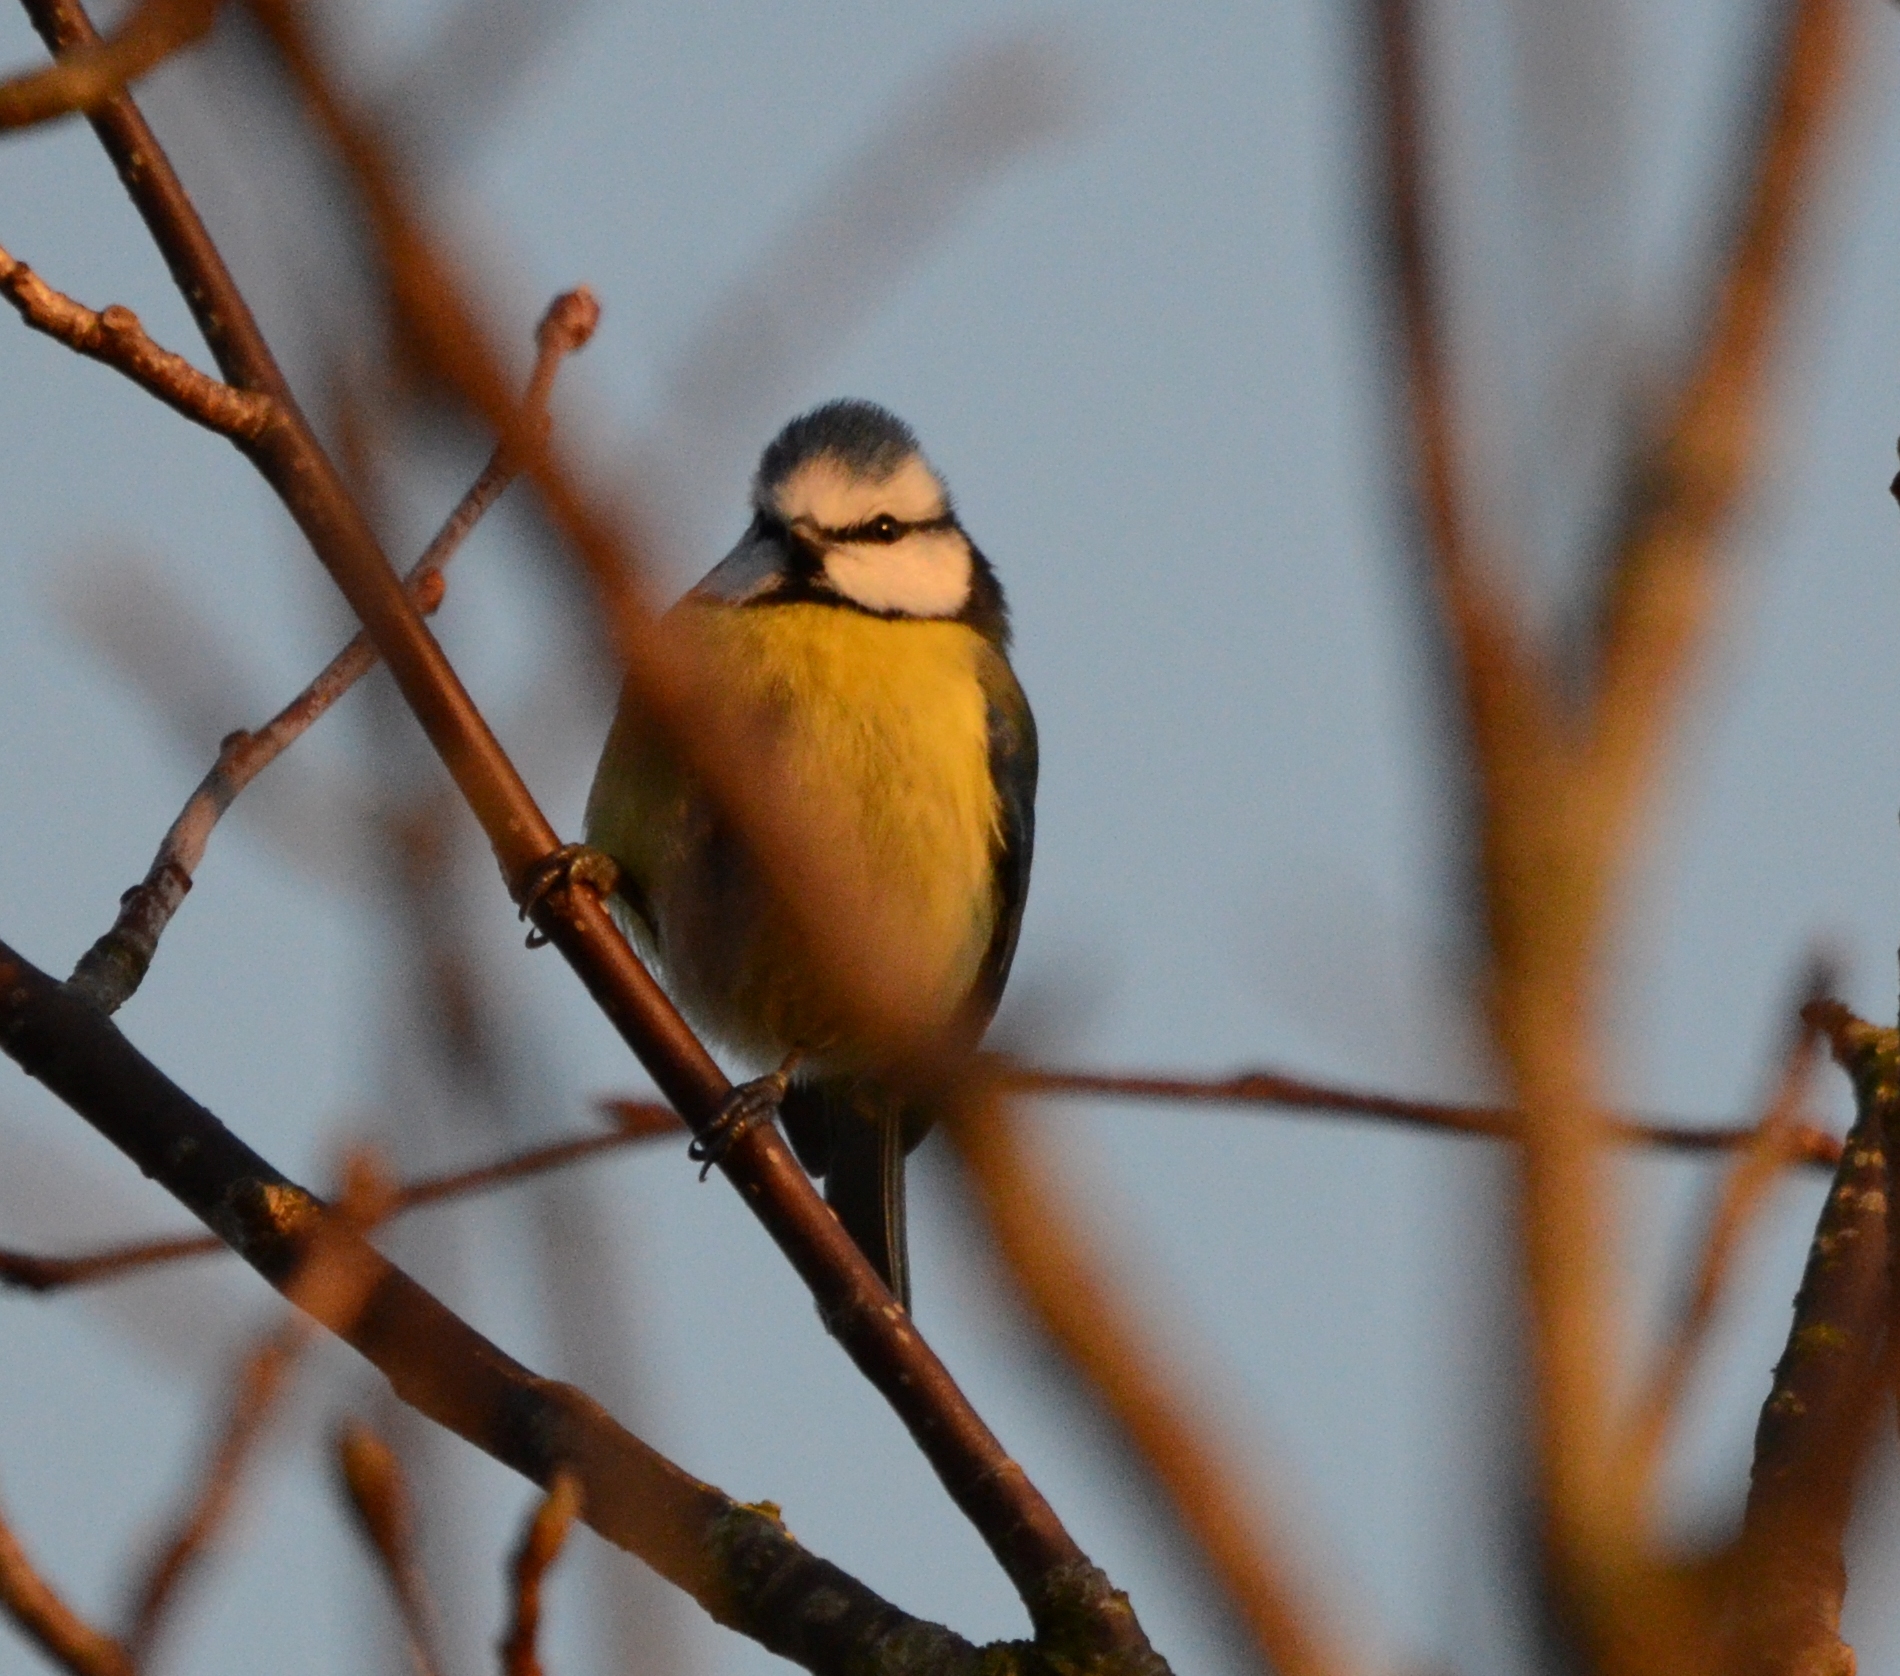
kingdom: Animalia
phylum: Chordata
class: Aves
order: Passeriformes
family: Paridae
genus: Cyanistes
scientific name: Cyanistes caeruleus
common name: Eurasian blue tit
